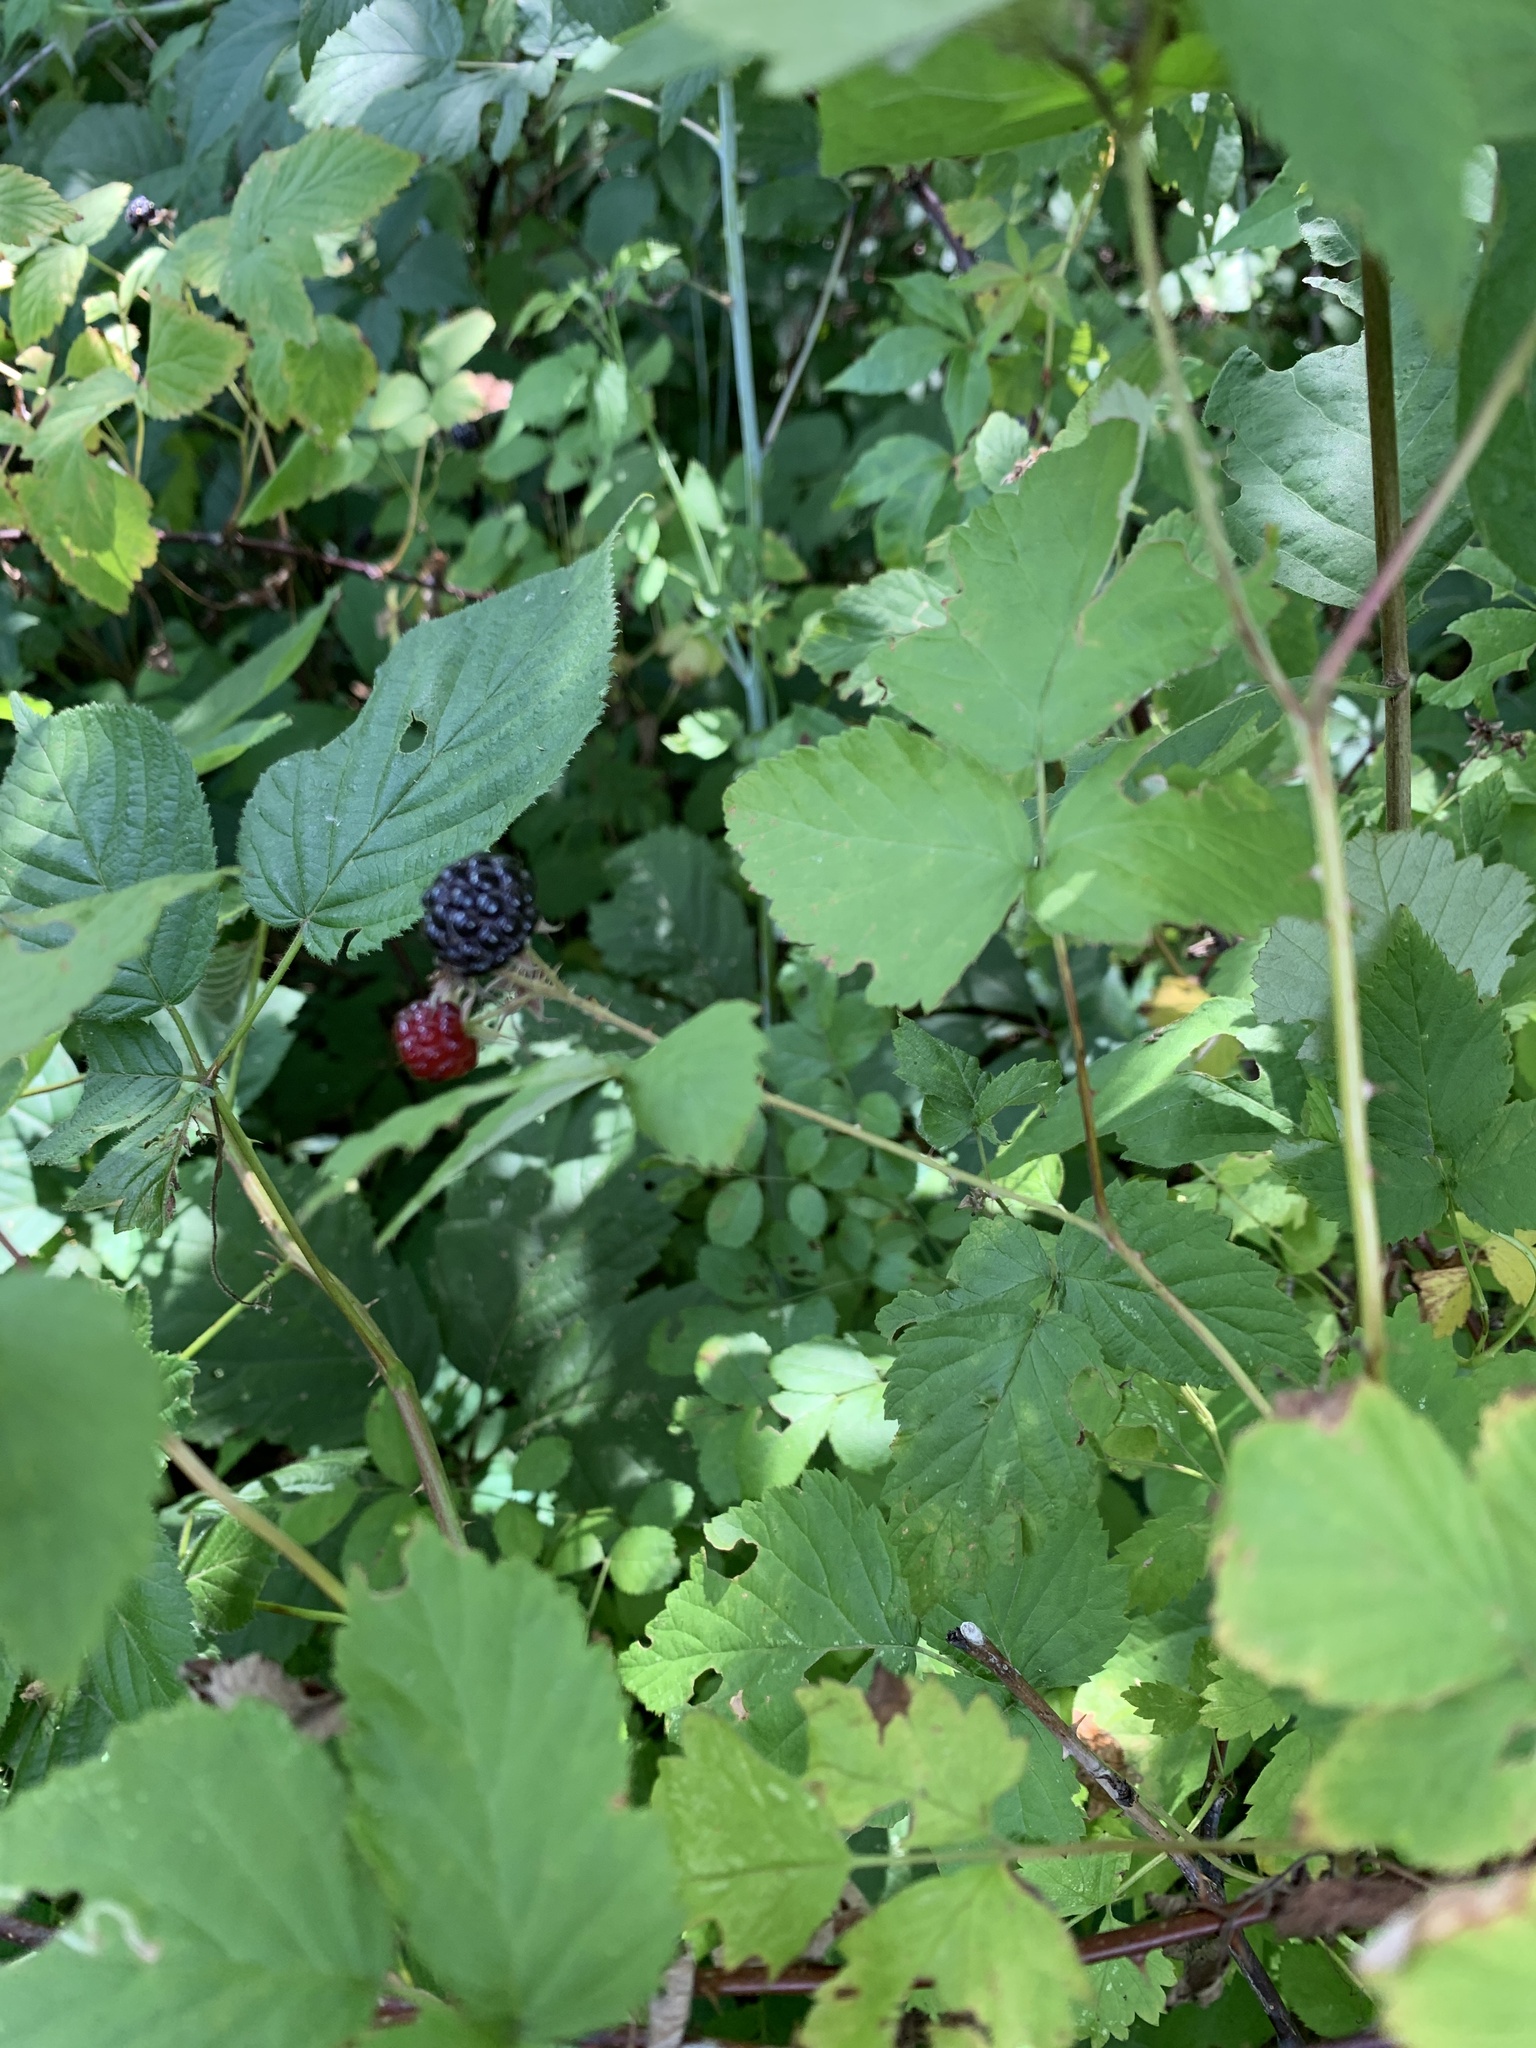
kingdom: Plantae
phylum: Tracheophyta
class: Magnoliopsida
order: Rosales
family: Rosaceae
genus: Rubus
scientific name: Rubus occidentalis
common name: Black raspberry
